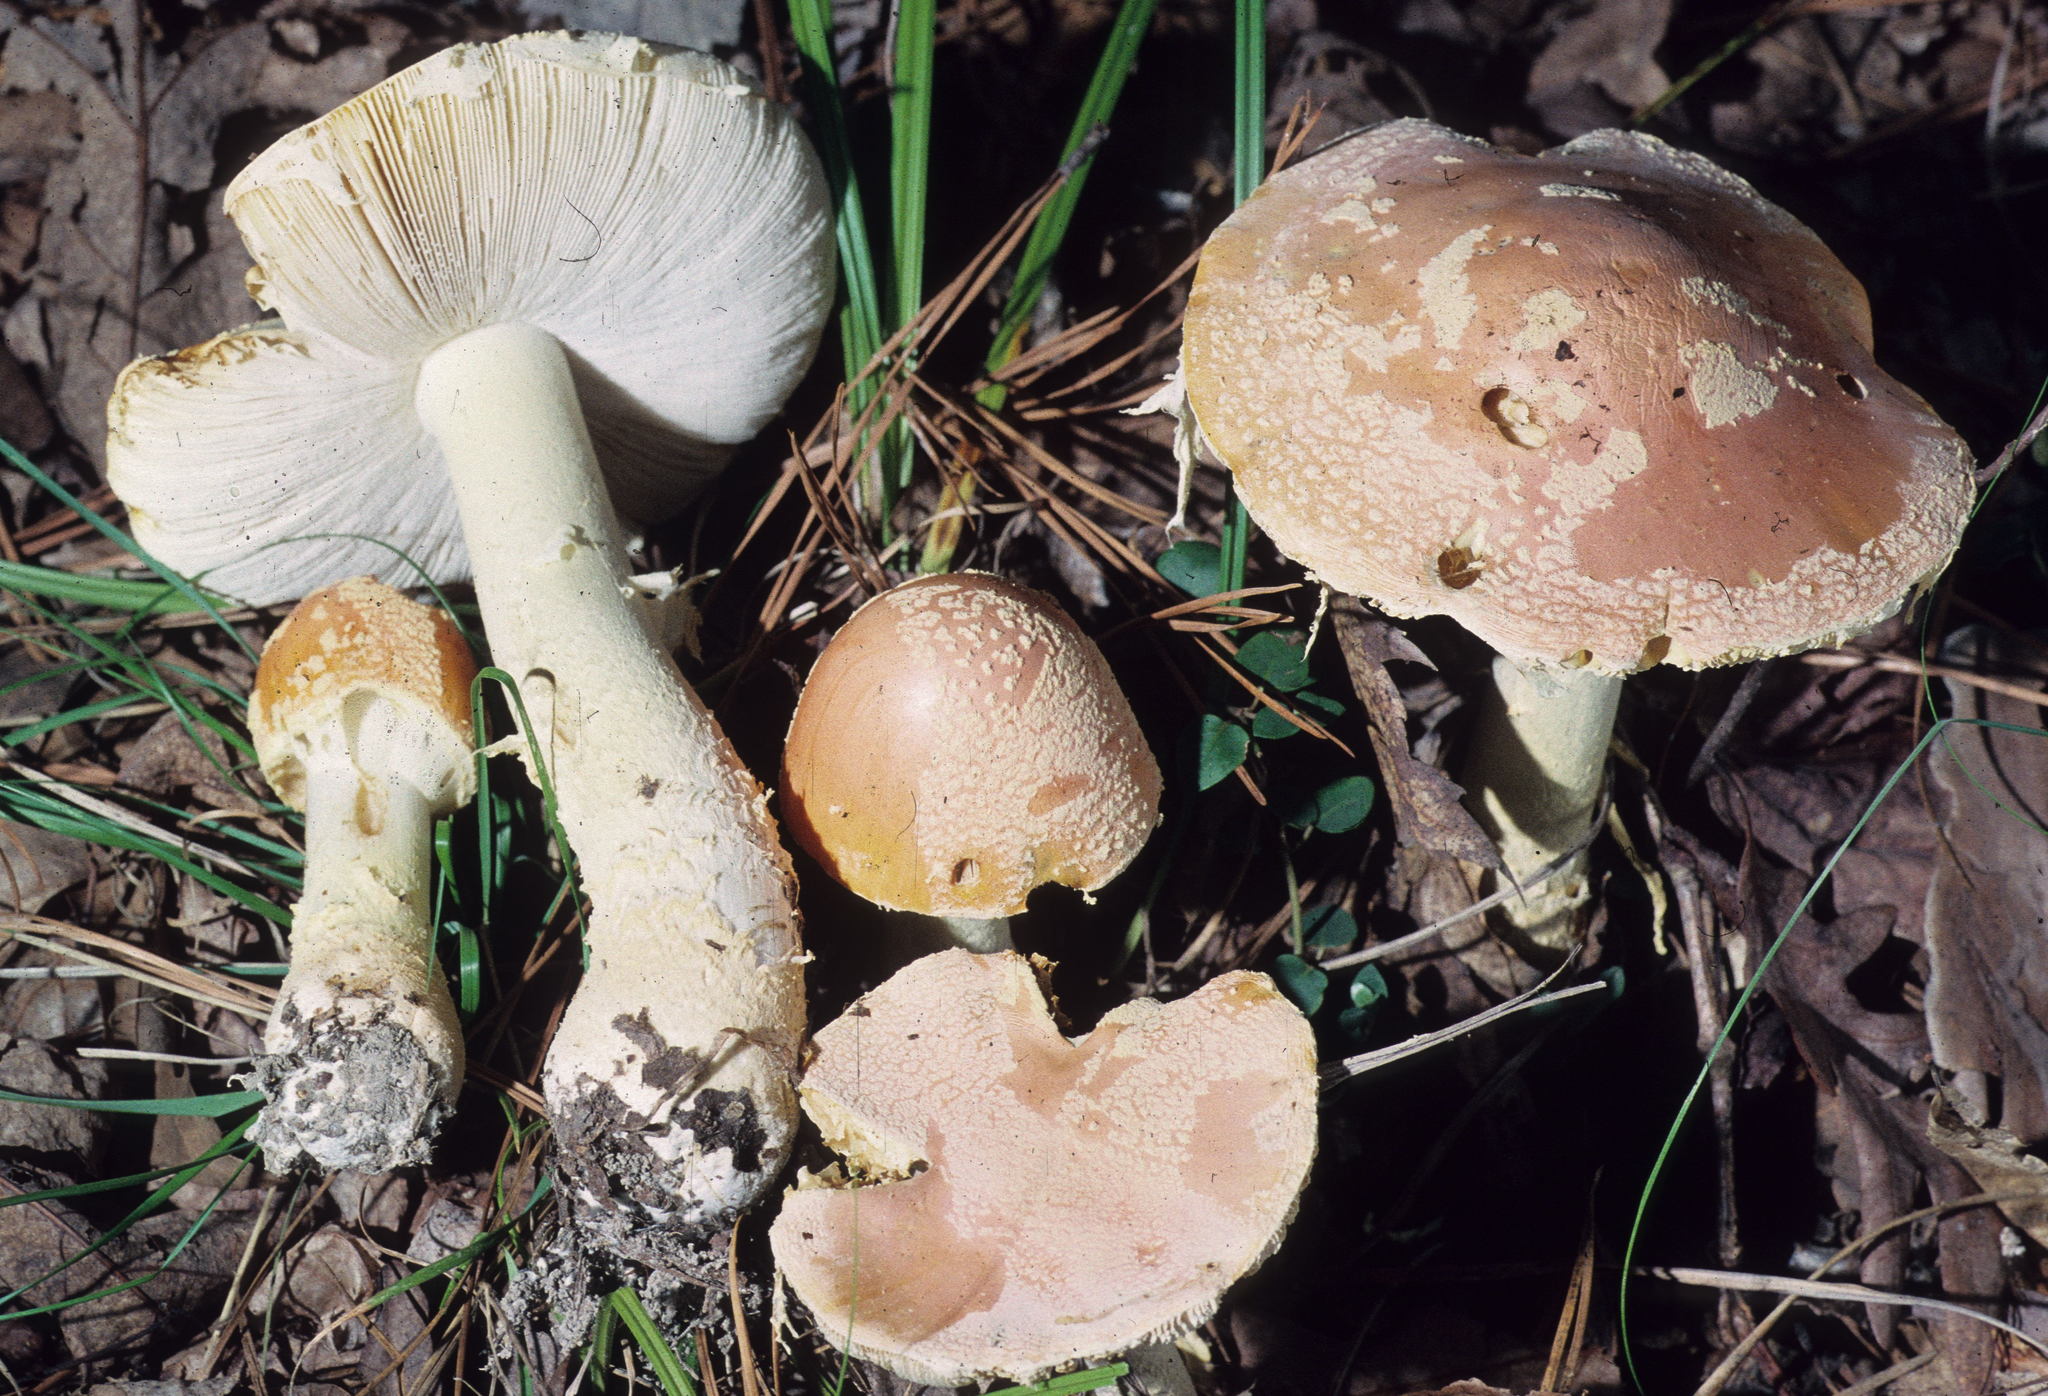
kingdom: Fungi
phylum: Basidiomycota
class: Agaricomycetes
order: Agaricales
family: Amanitaceae
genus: Amanita
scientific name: Amanita persicina
